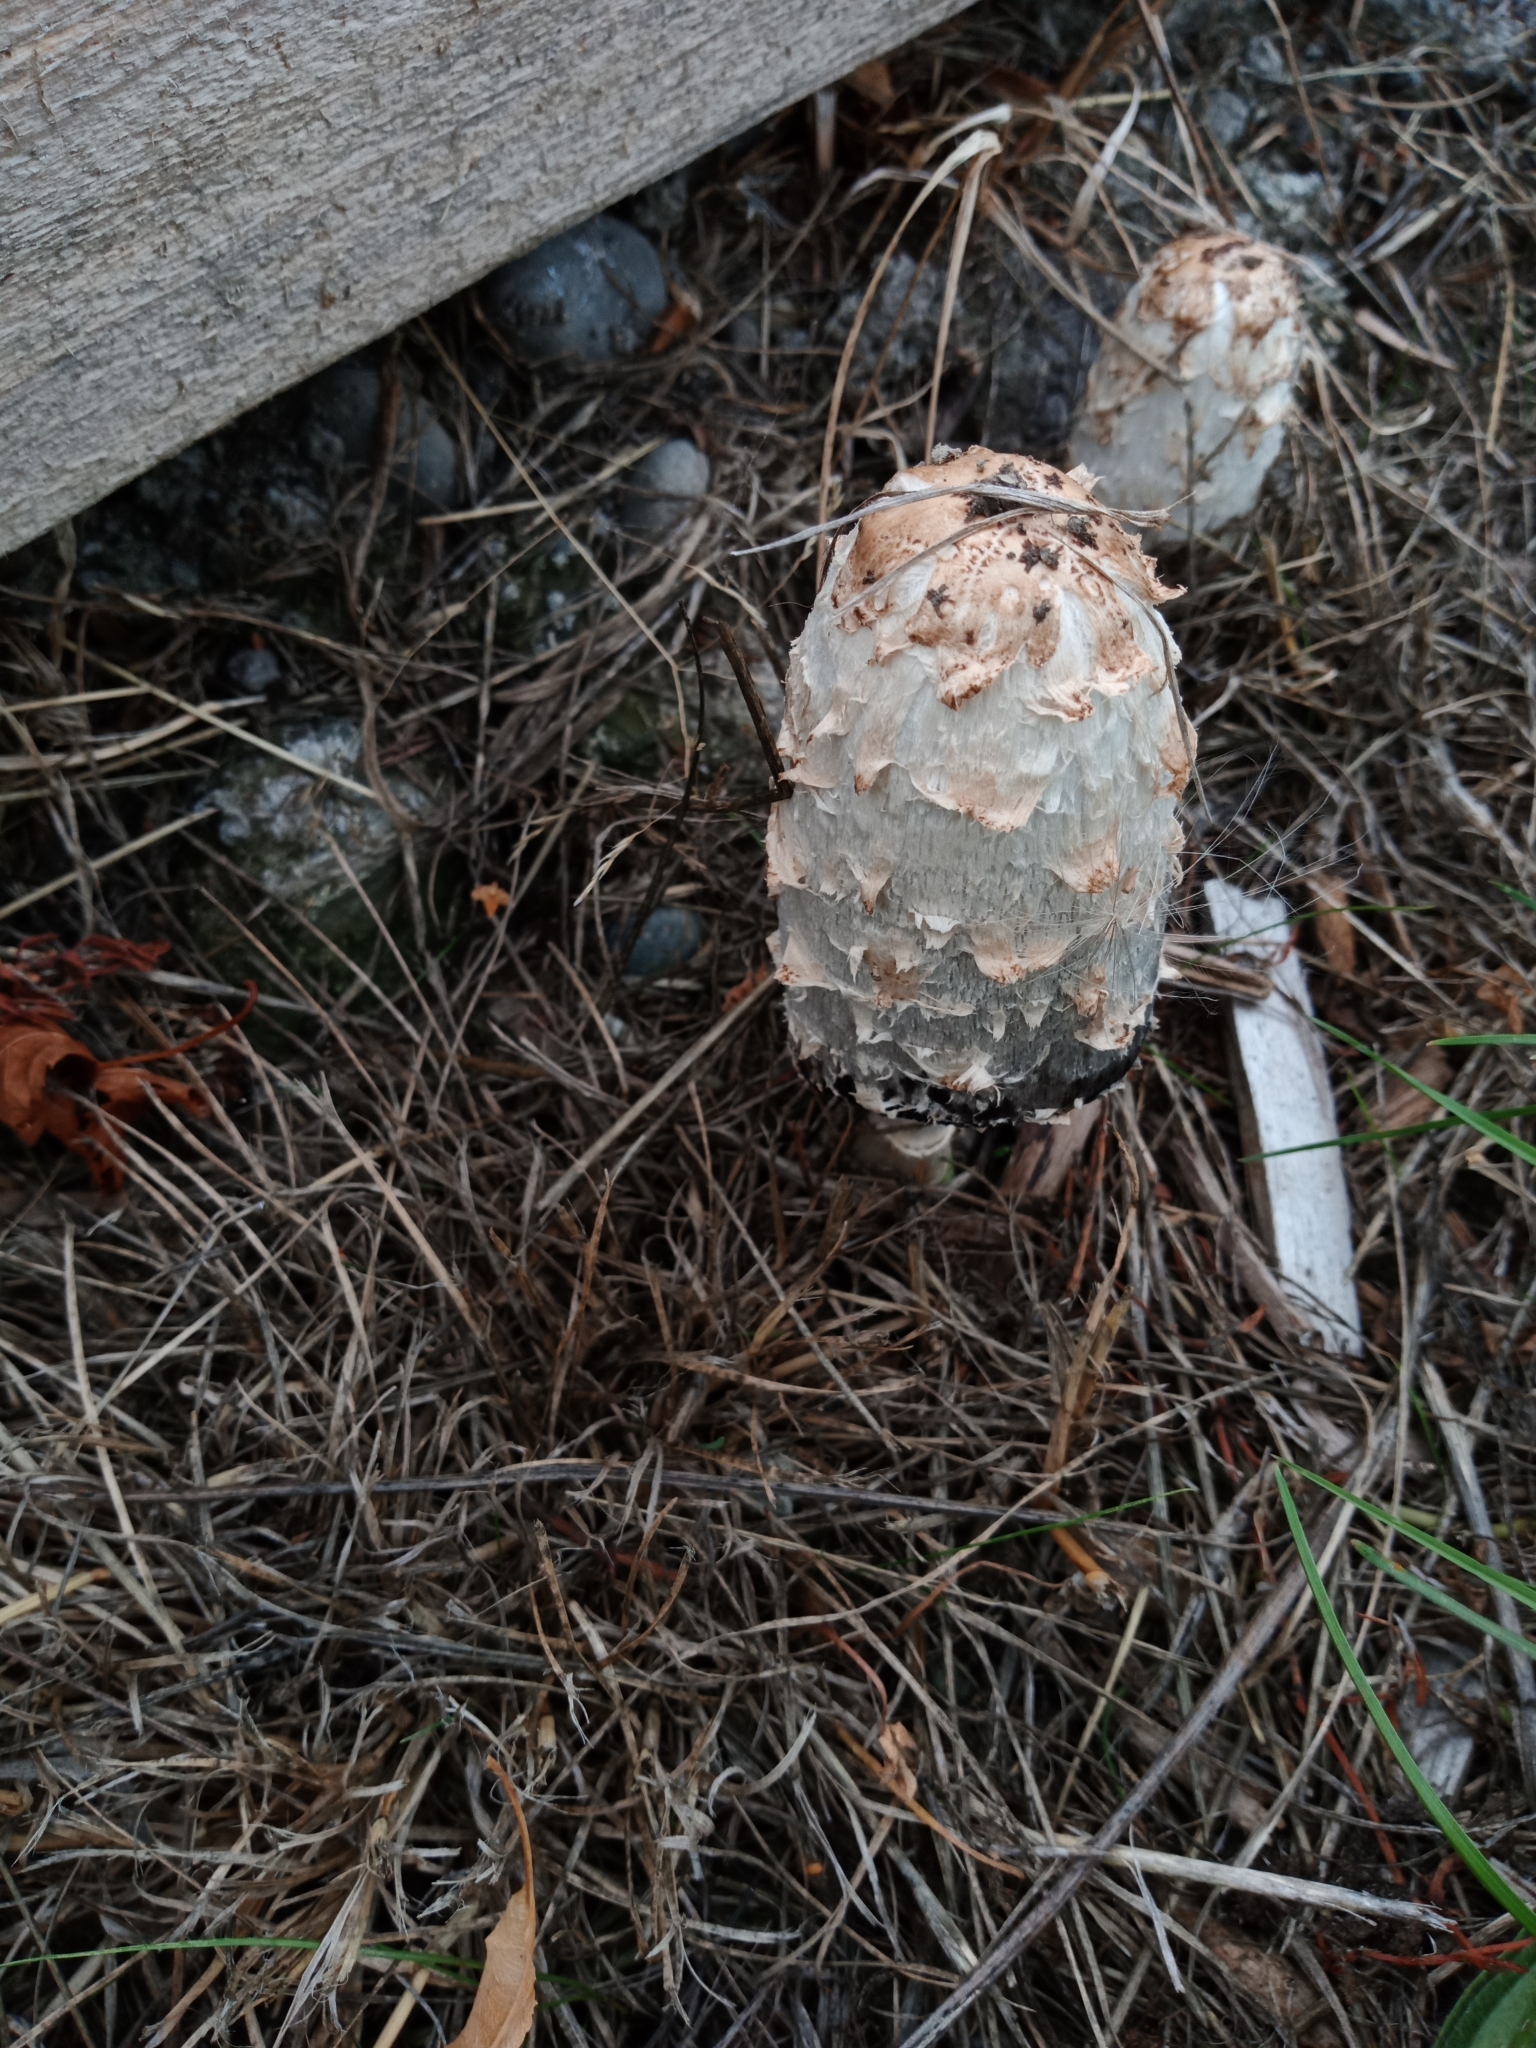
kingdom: Fungi
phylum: Basidiomycota
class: Agaricomycetes
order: Agaricales
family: Agaricaceae
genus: Coprinus
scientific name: Coprinus comatus
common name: Lawyer's wig
